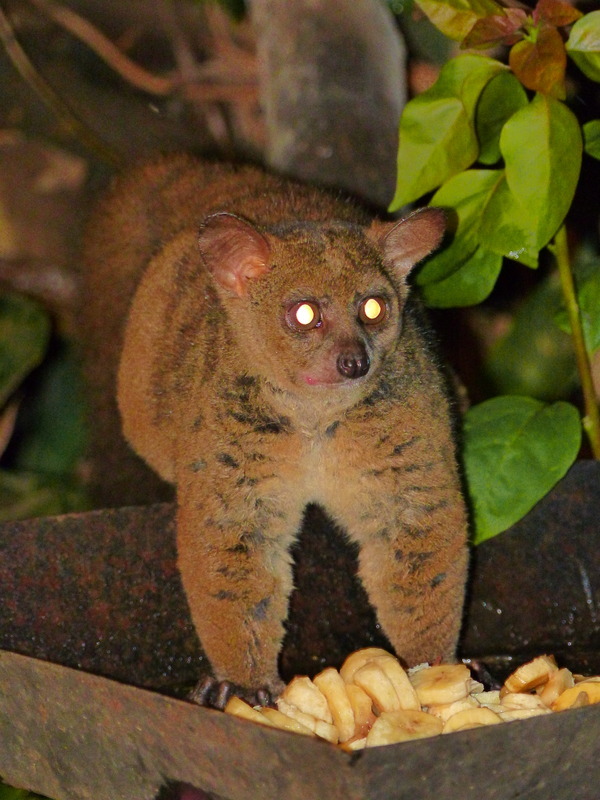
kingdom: Animalia
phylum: Chordata
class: Mammalia
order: Primates
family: Galagidae
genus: Otolemur
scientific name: Otolemur garnettii
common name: Northern greater galago
